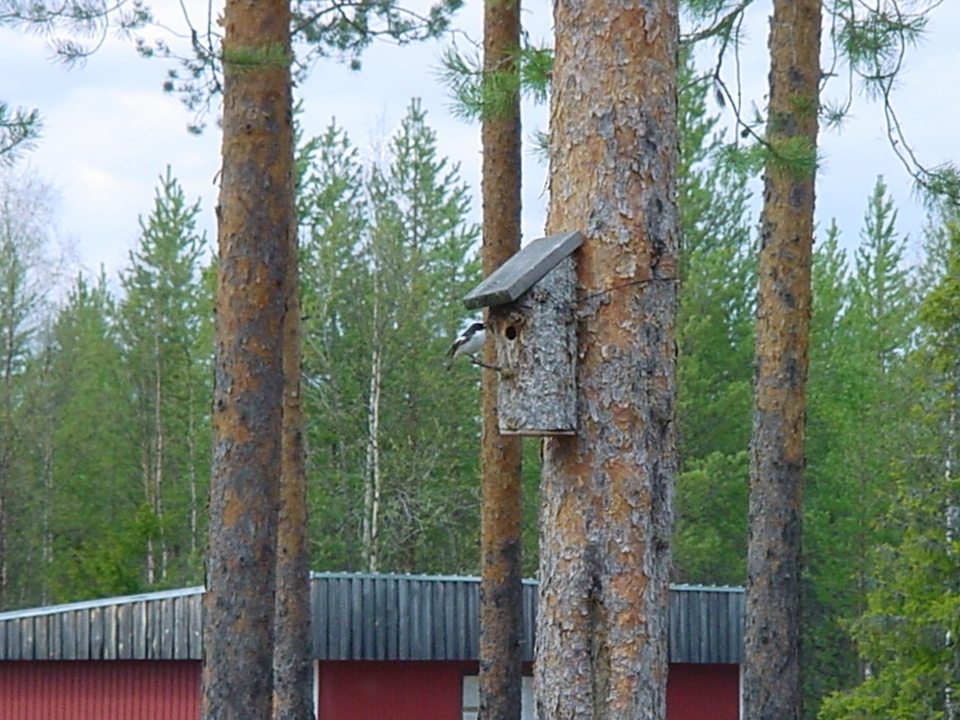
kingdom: Animalia
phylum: Chordata
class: Aves
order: Passeriformes
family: Muscicapidae
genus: Ficedula
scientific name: Ficedula hypoleuca
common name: European pied flycatcher
